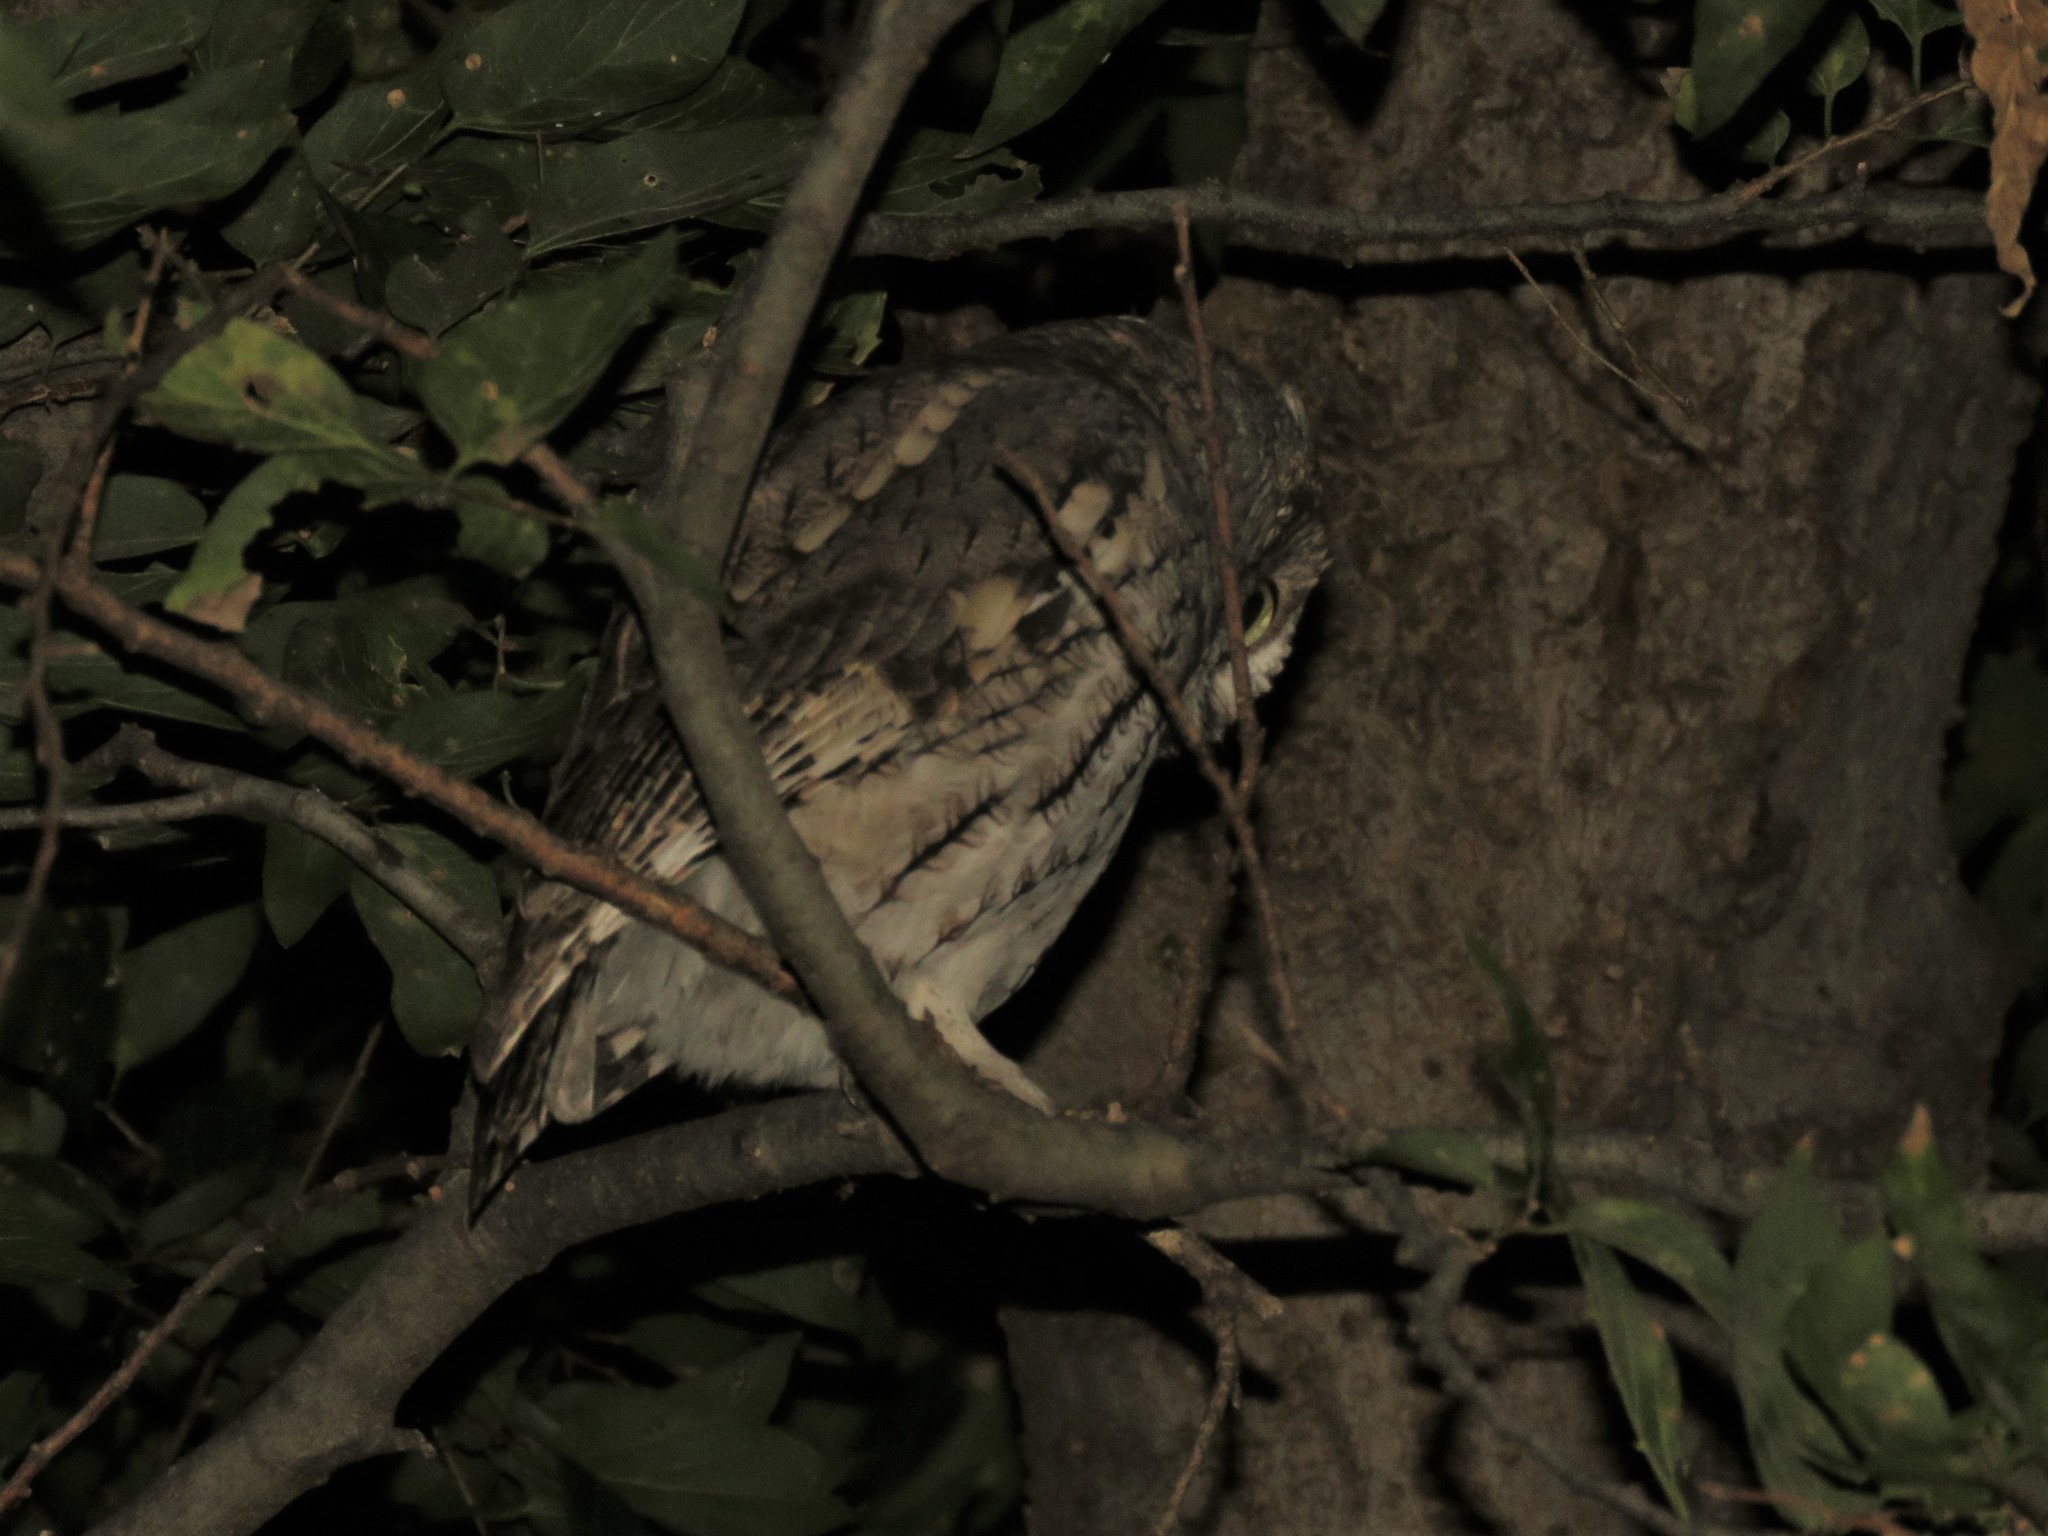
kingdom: Animalia
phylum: Chordata
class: Aves
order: Strigiformes
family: Strigidae
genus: Megascops
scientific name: Megascops asio
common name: Eastern screech-owl
